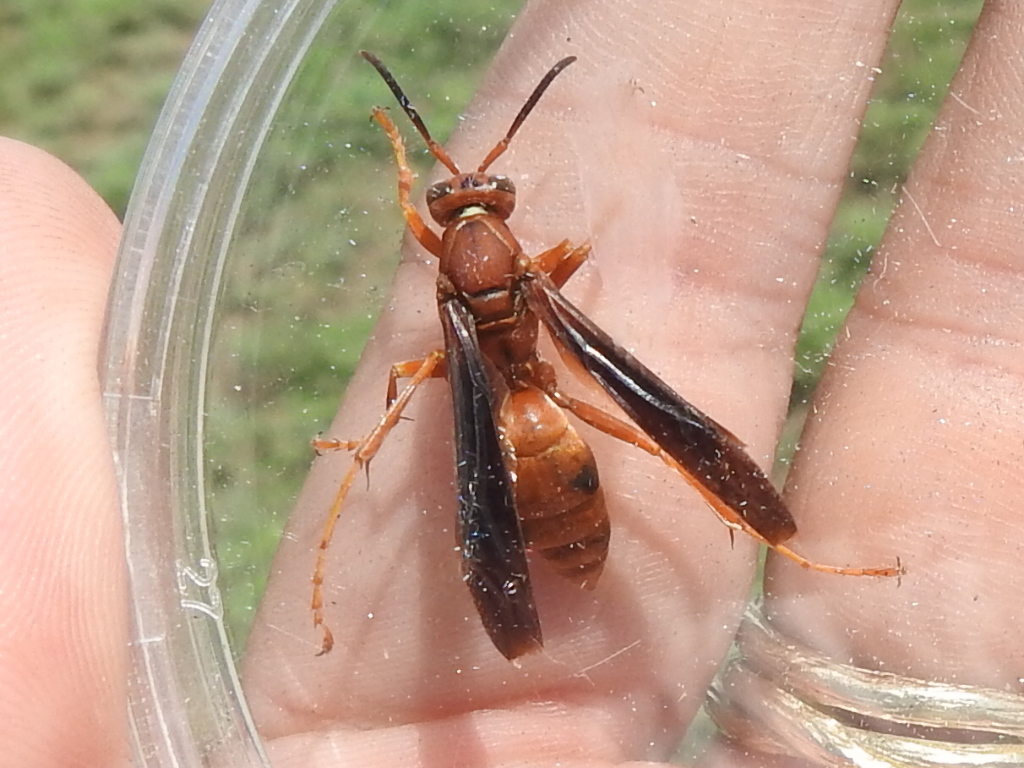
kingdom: Animalia
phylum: Arthropoda
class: Insecta
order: Hymenoptera
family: Vespidae
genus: Fuscopolistes
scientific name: Fuscopolistes
